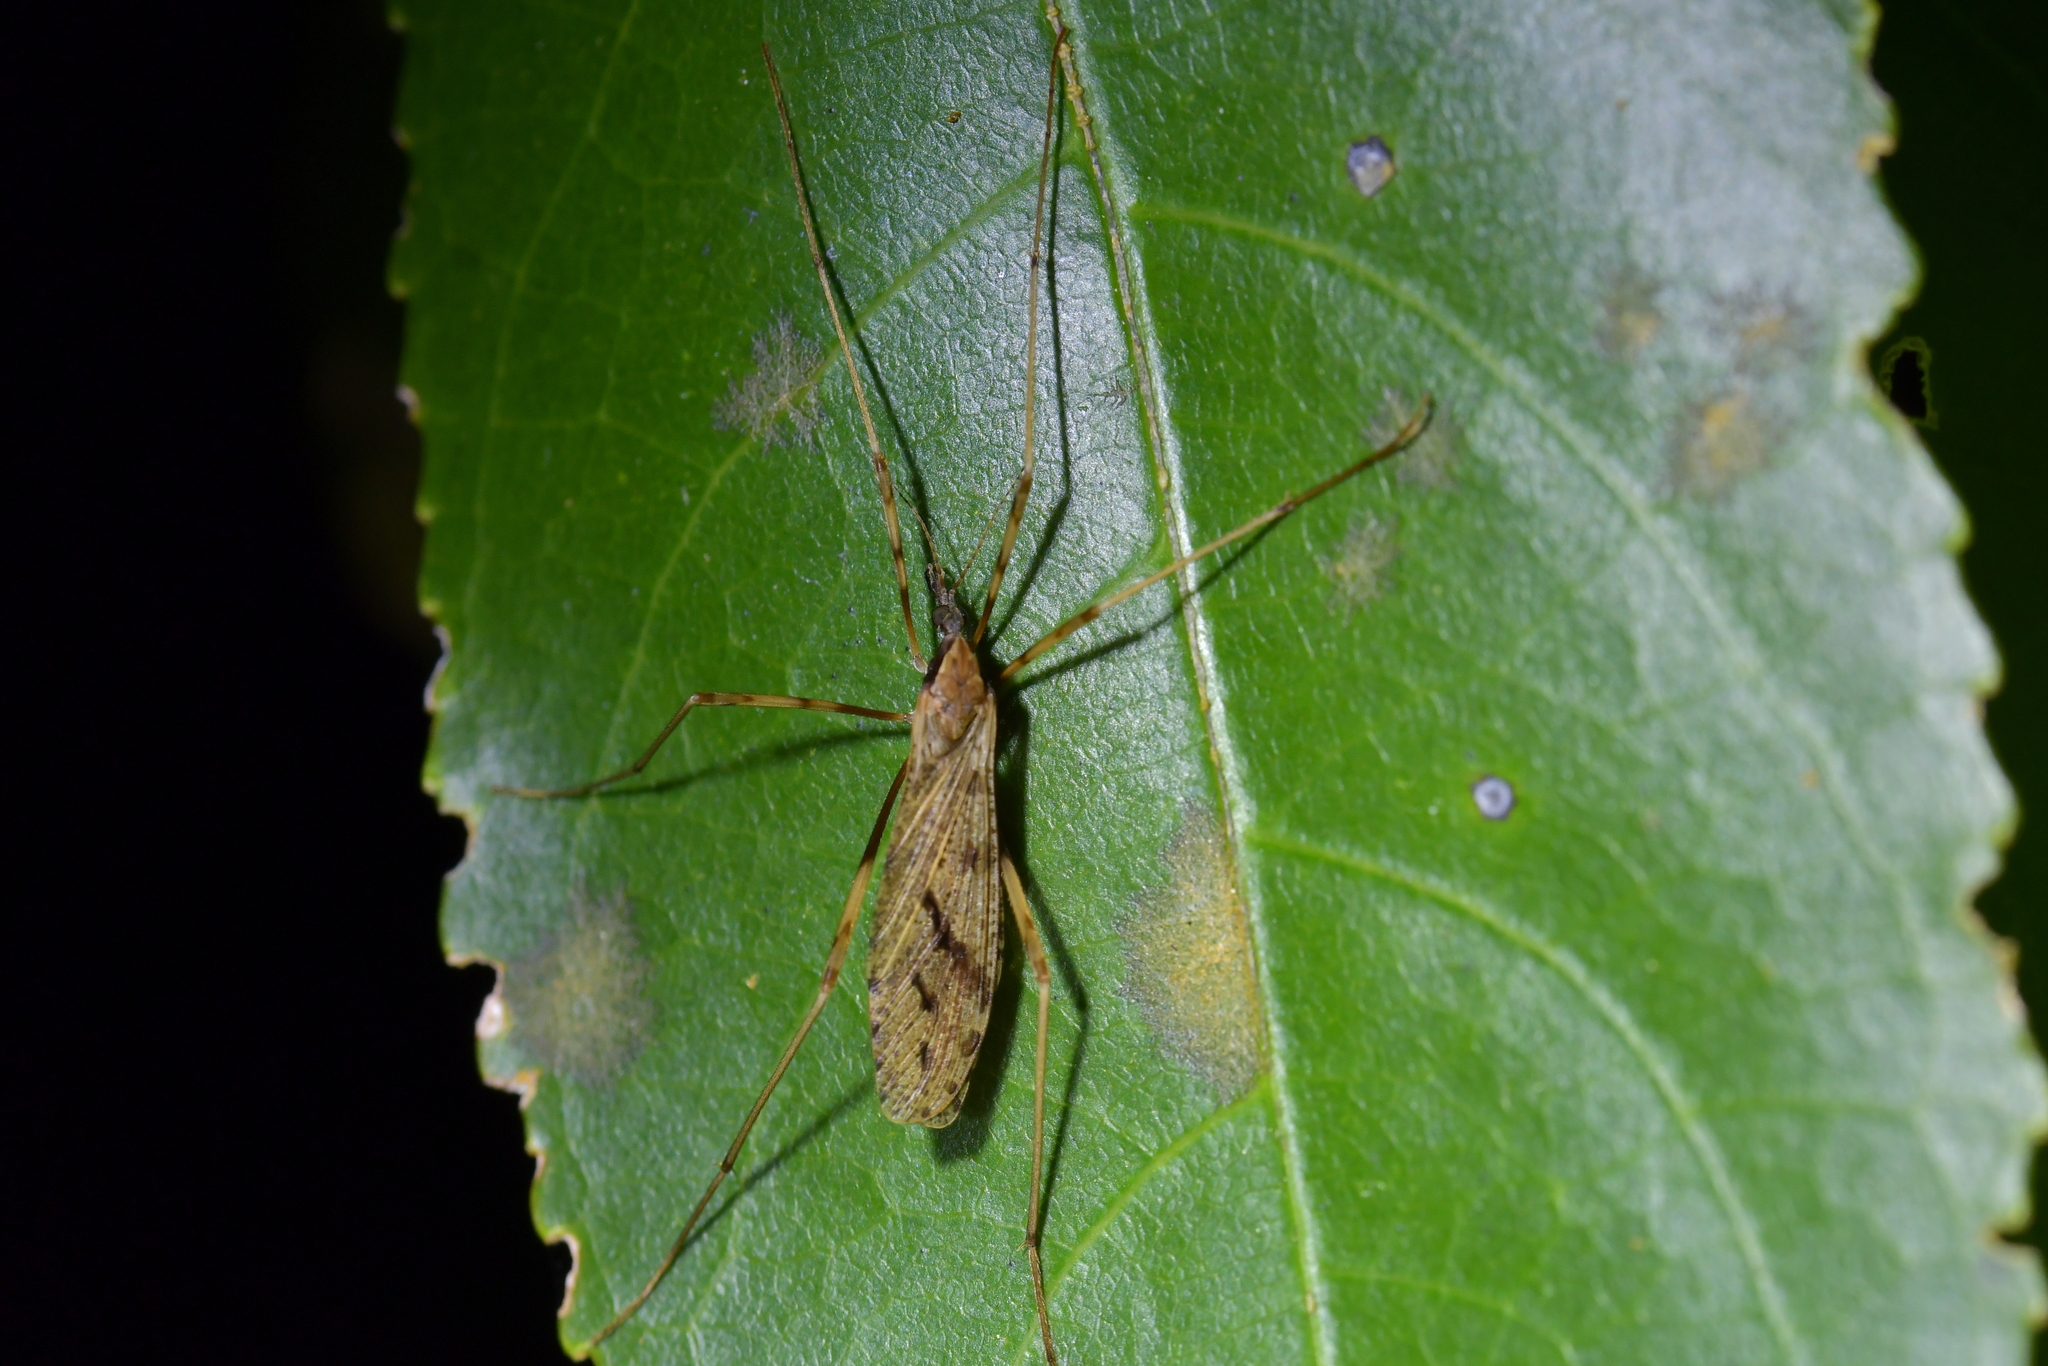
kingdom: Animalia
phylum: Arthropoda
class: Insecta
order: Diptera
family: Limoniidae
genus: Rhamphophila
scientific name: Rhamphophila sinistra
